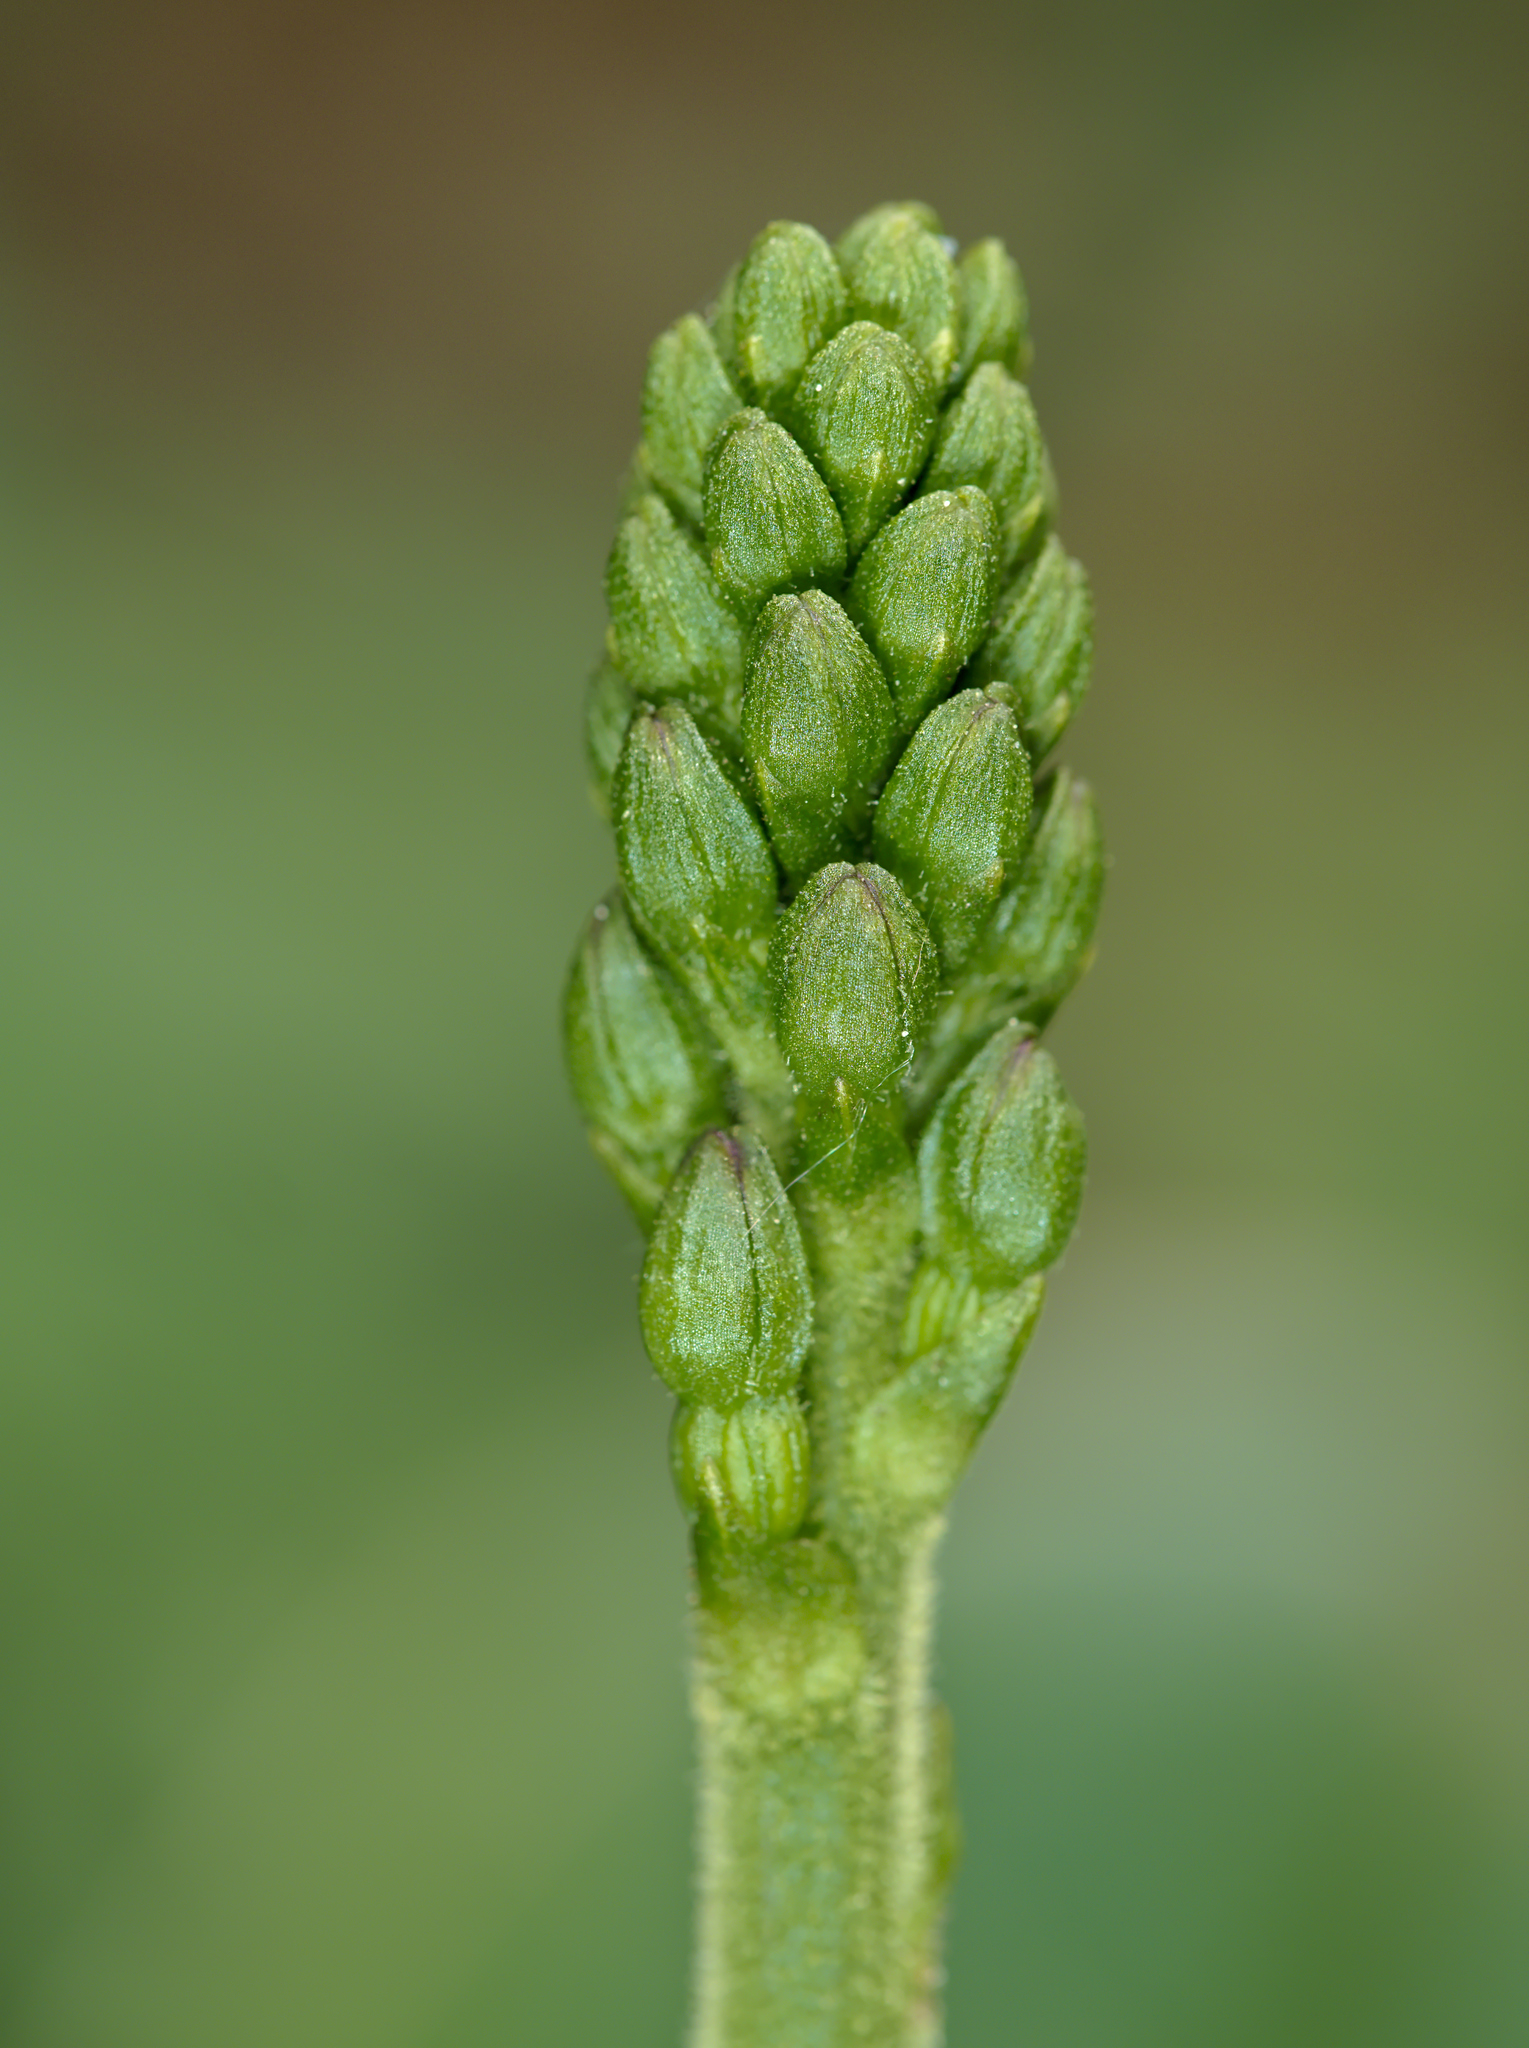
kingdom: Plantae
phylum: Tracheophyta
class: Liliopsida
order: Asparagales
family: Orchidaceae
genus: Neottia
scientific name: Neottia ovata
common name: Common twayblade
